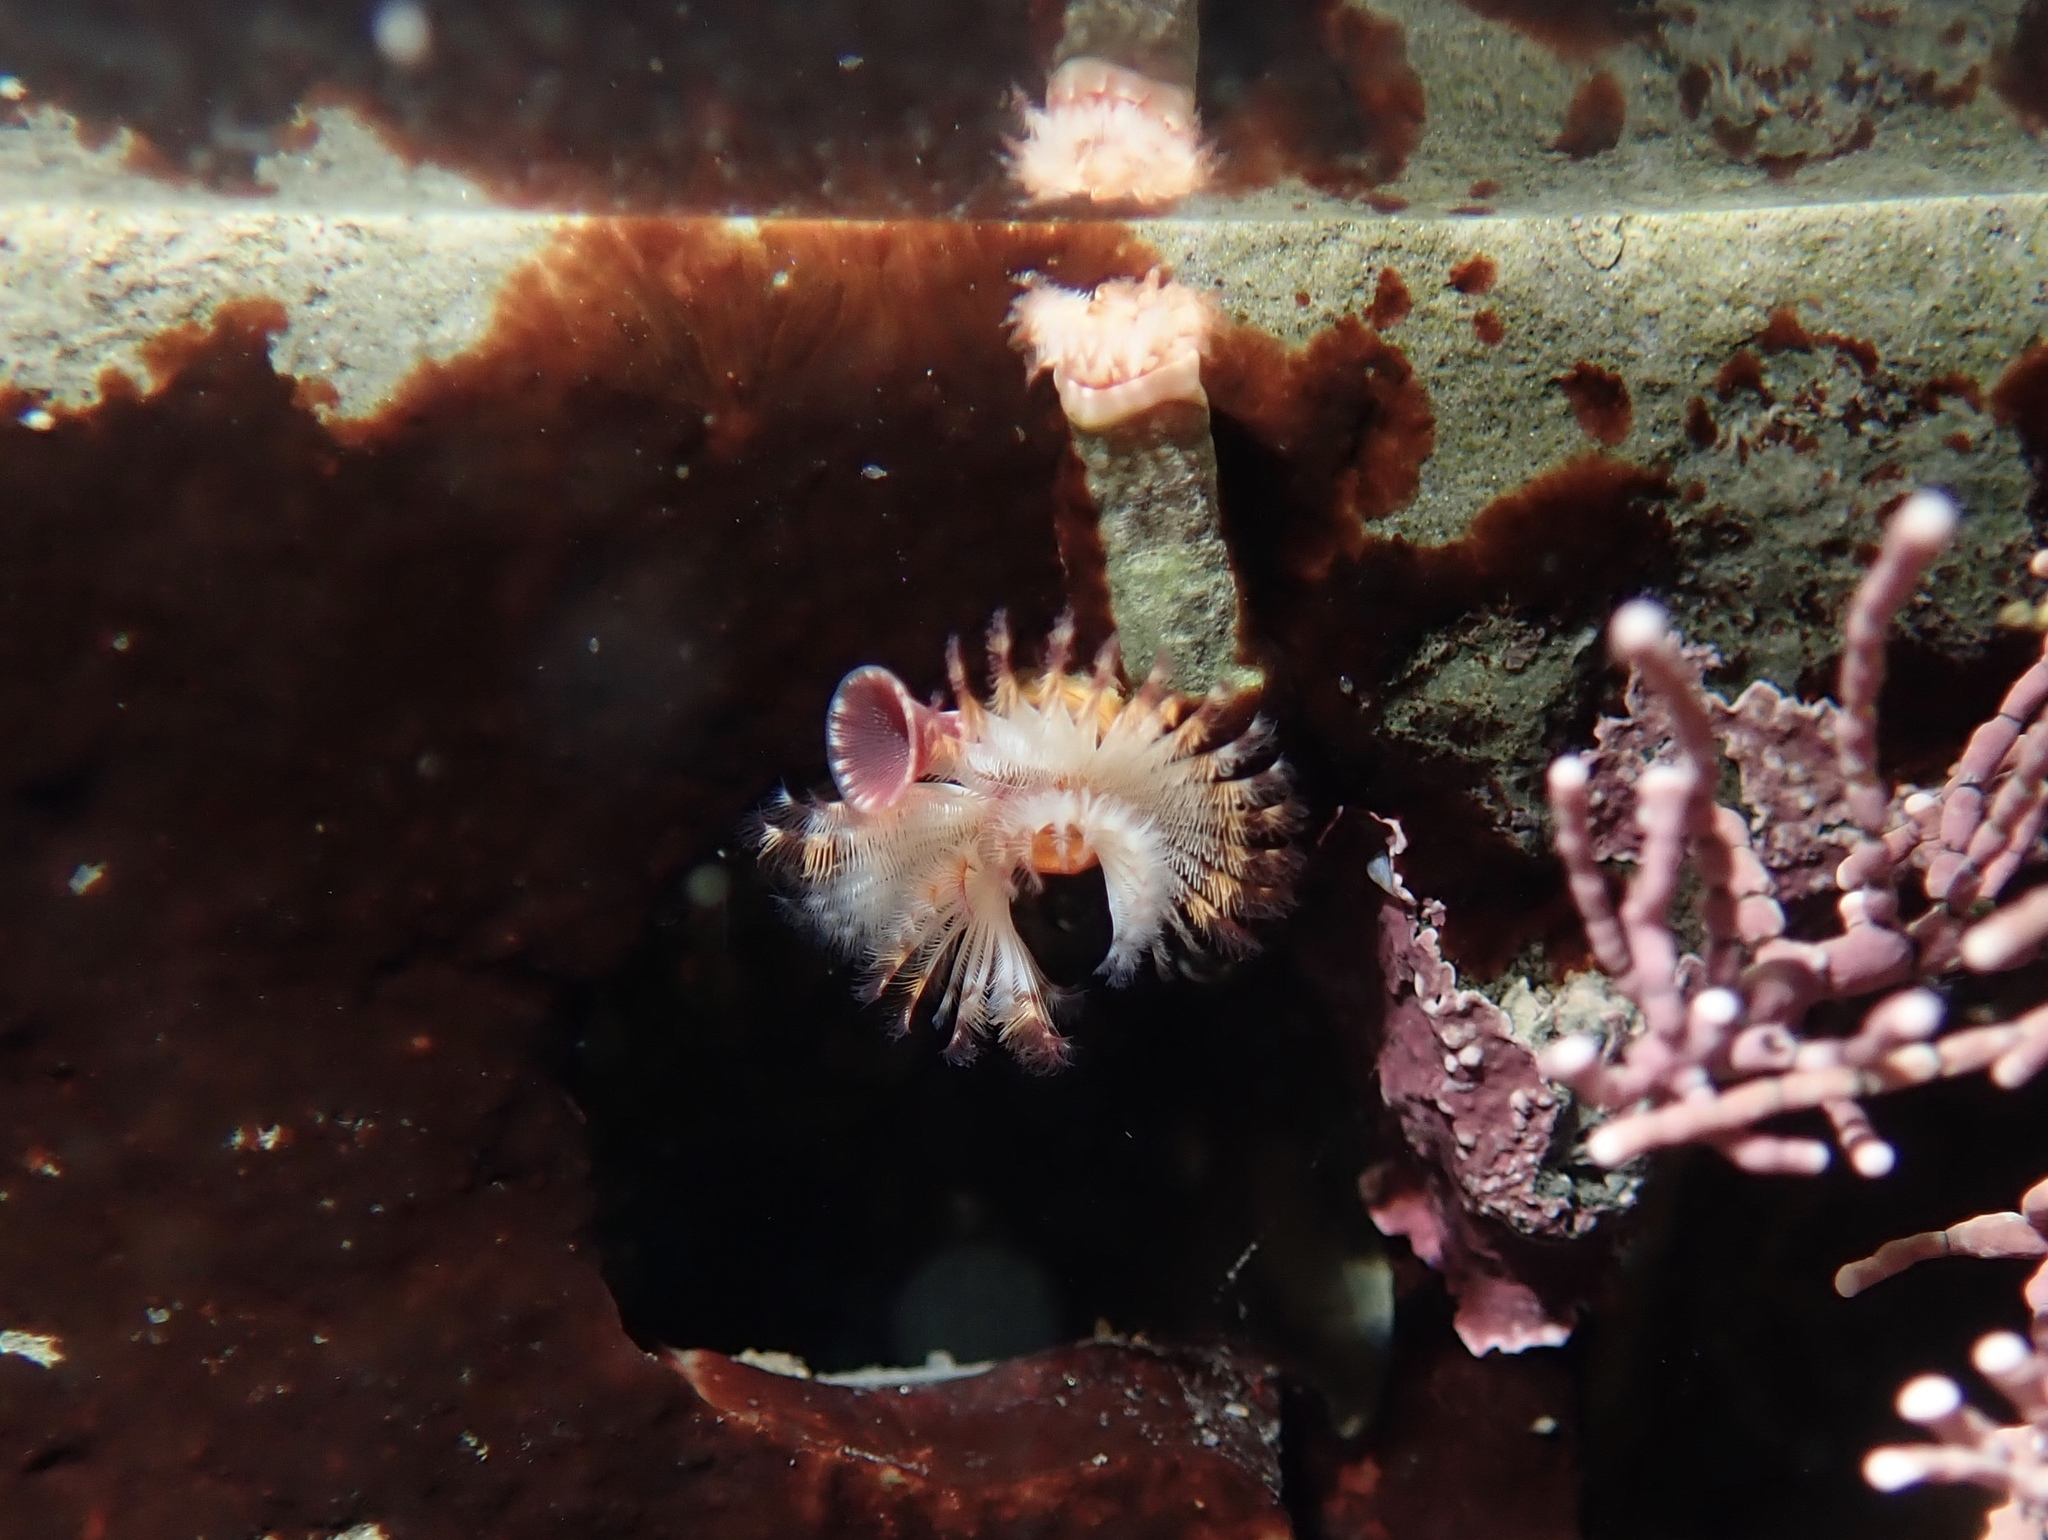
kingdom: Animalia
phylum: Annelida
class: Polychaeta
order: Sabellida
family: Serpulidae
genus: Serpula
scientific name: Serpula columbiana
